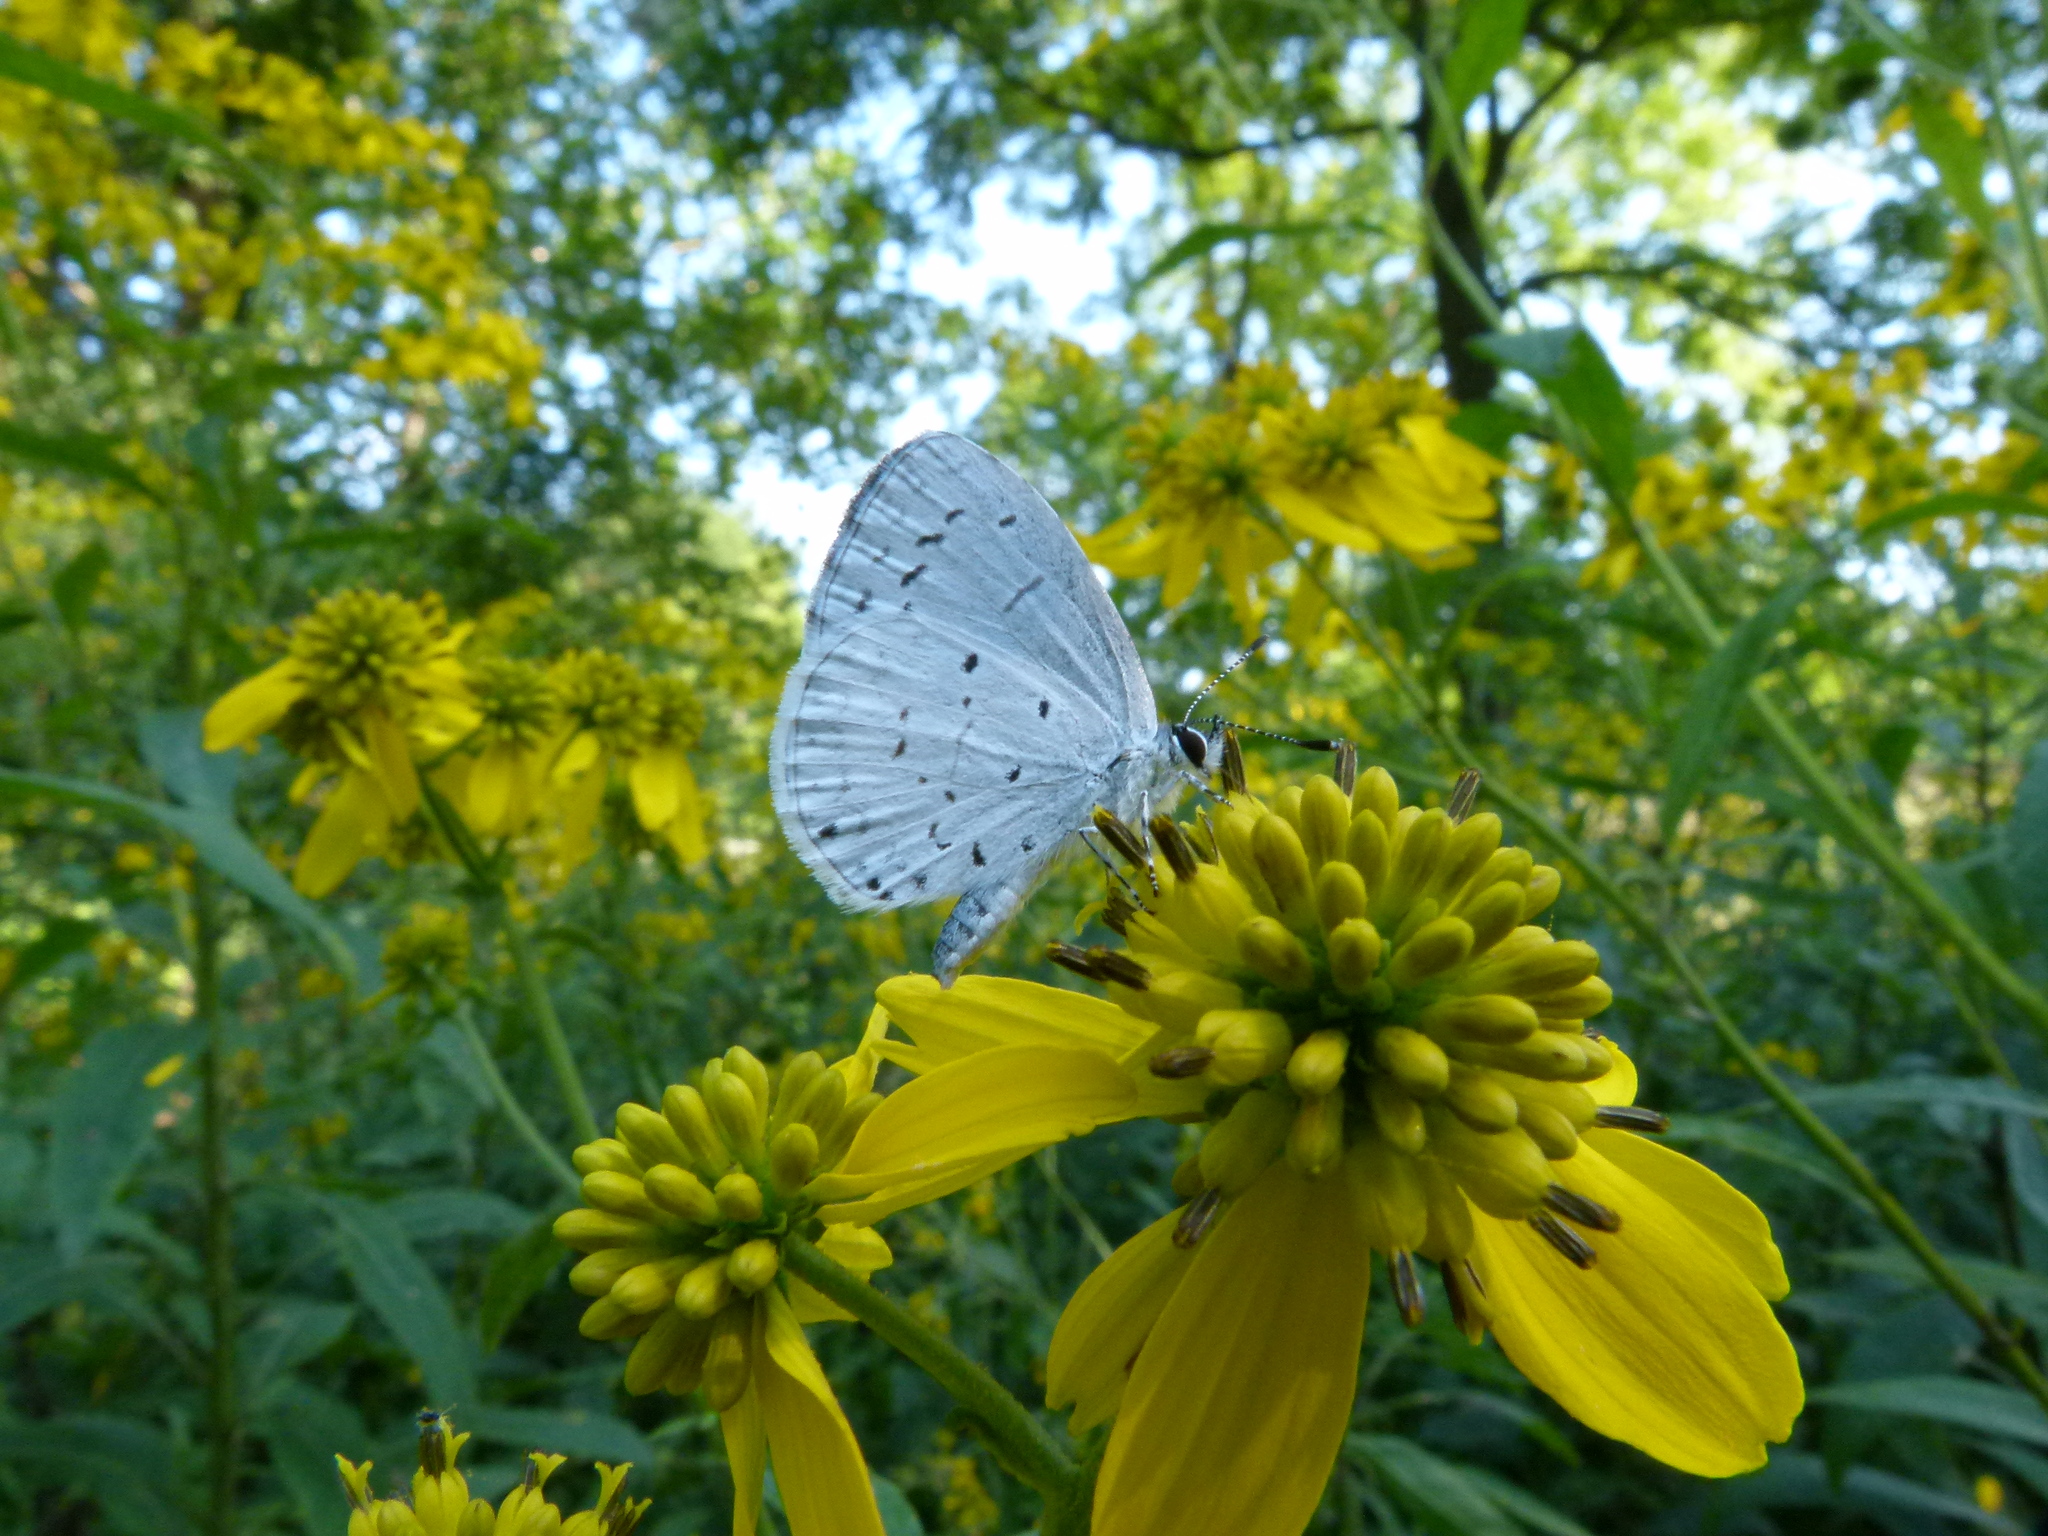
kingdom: Animalia
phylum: Arthropoda
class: Insecta
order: Lepidoptera
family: Lycaenidae
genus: Cyaniris
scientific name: Cyaniris neglecta
